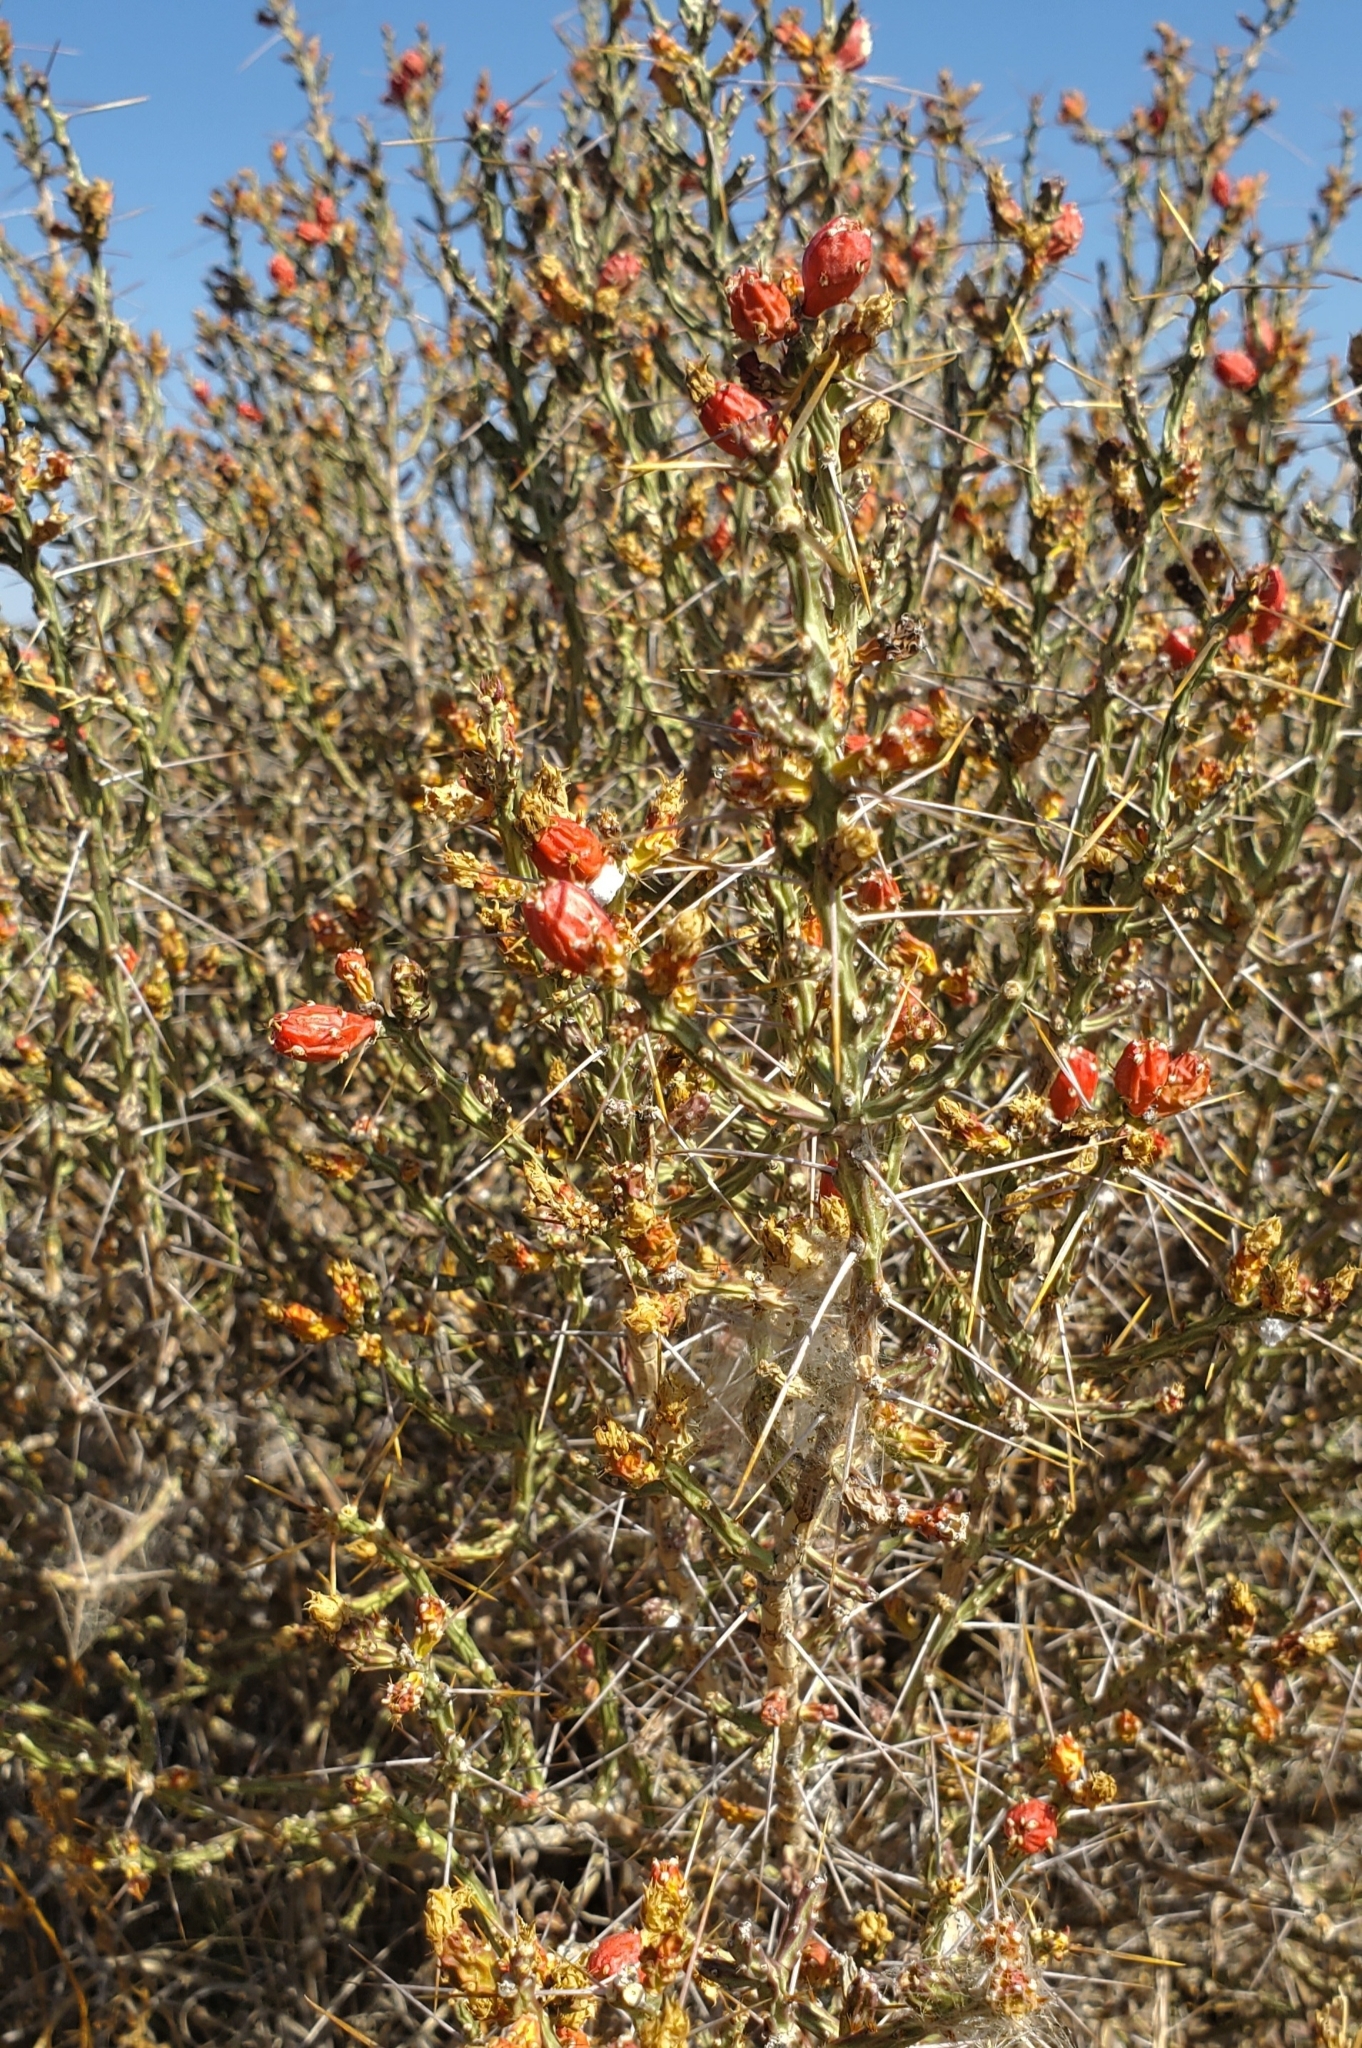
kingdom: Plantae
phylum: Tracheophyta
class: Magnoliopsida
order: Caryophyllales
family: Cactaceae
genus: Cylindropuntia
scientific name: Cylindropuntia leptocaulis
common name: Christmas cactus
